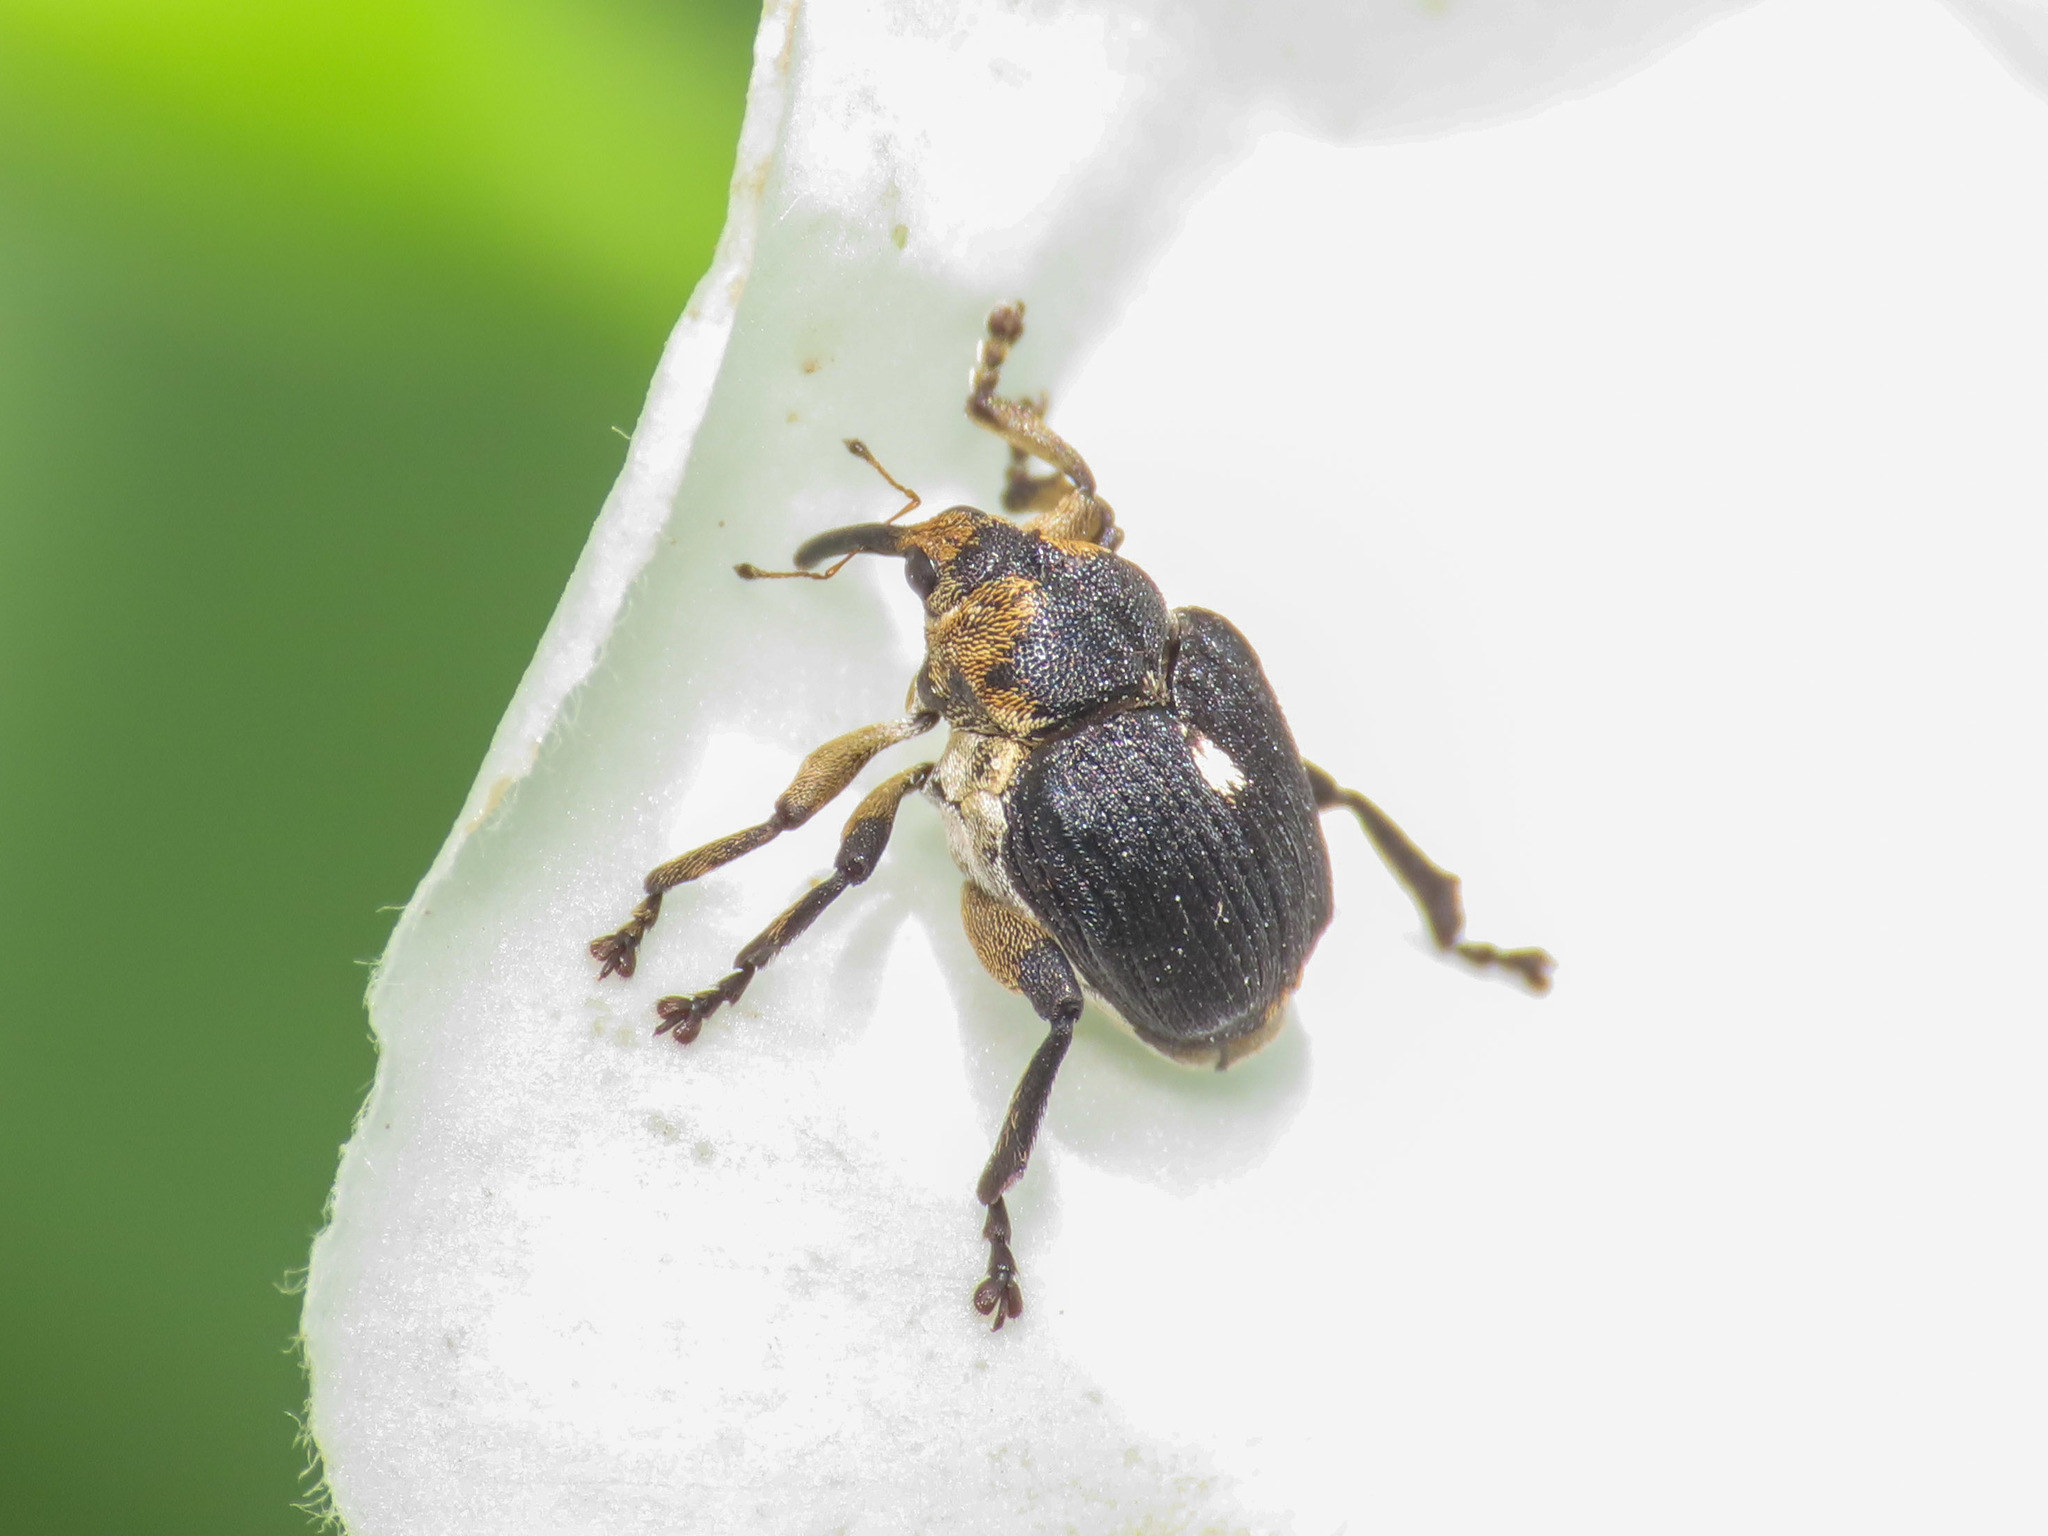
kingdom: Animalia
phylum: Arthropoda
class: Insecta
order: Coleoptera
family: Curculionidae
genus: Mononychus
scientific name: Mononychus punctumalbum
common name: Iris weevil
